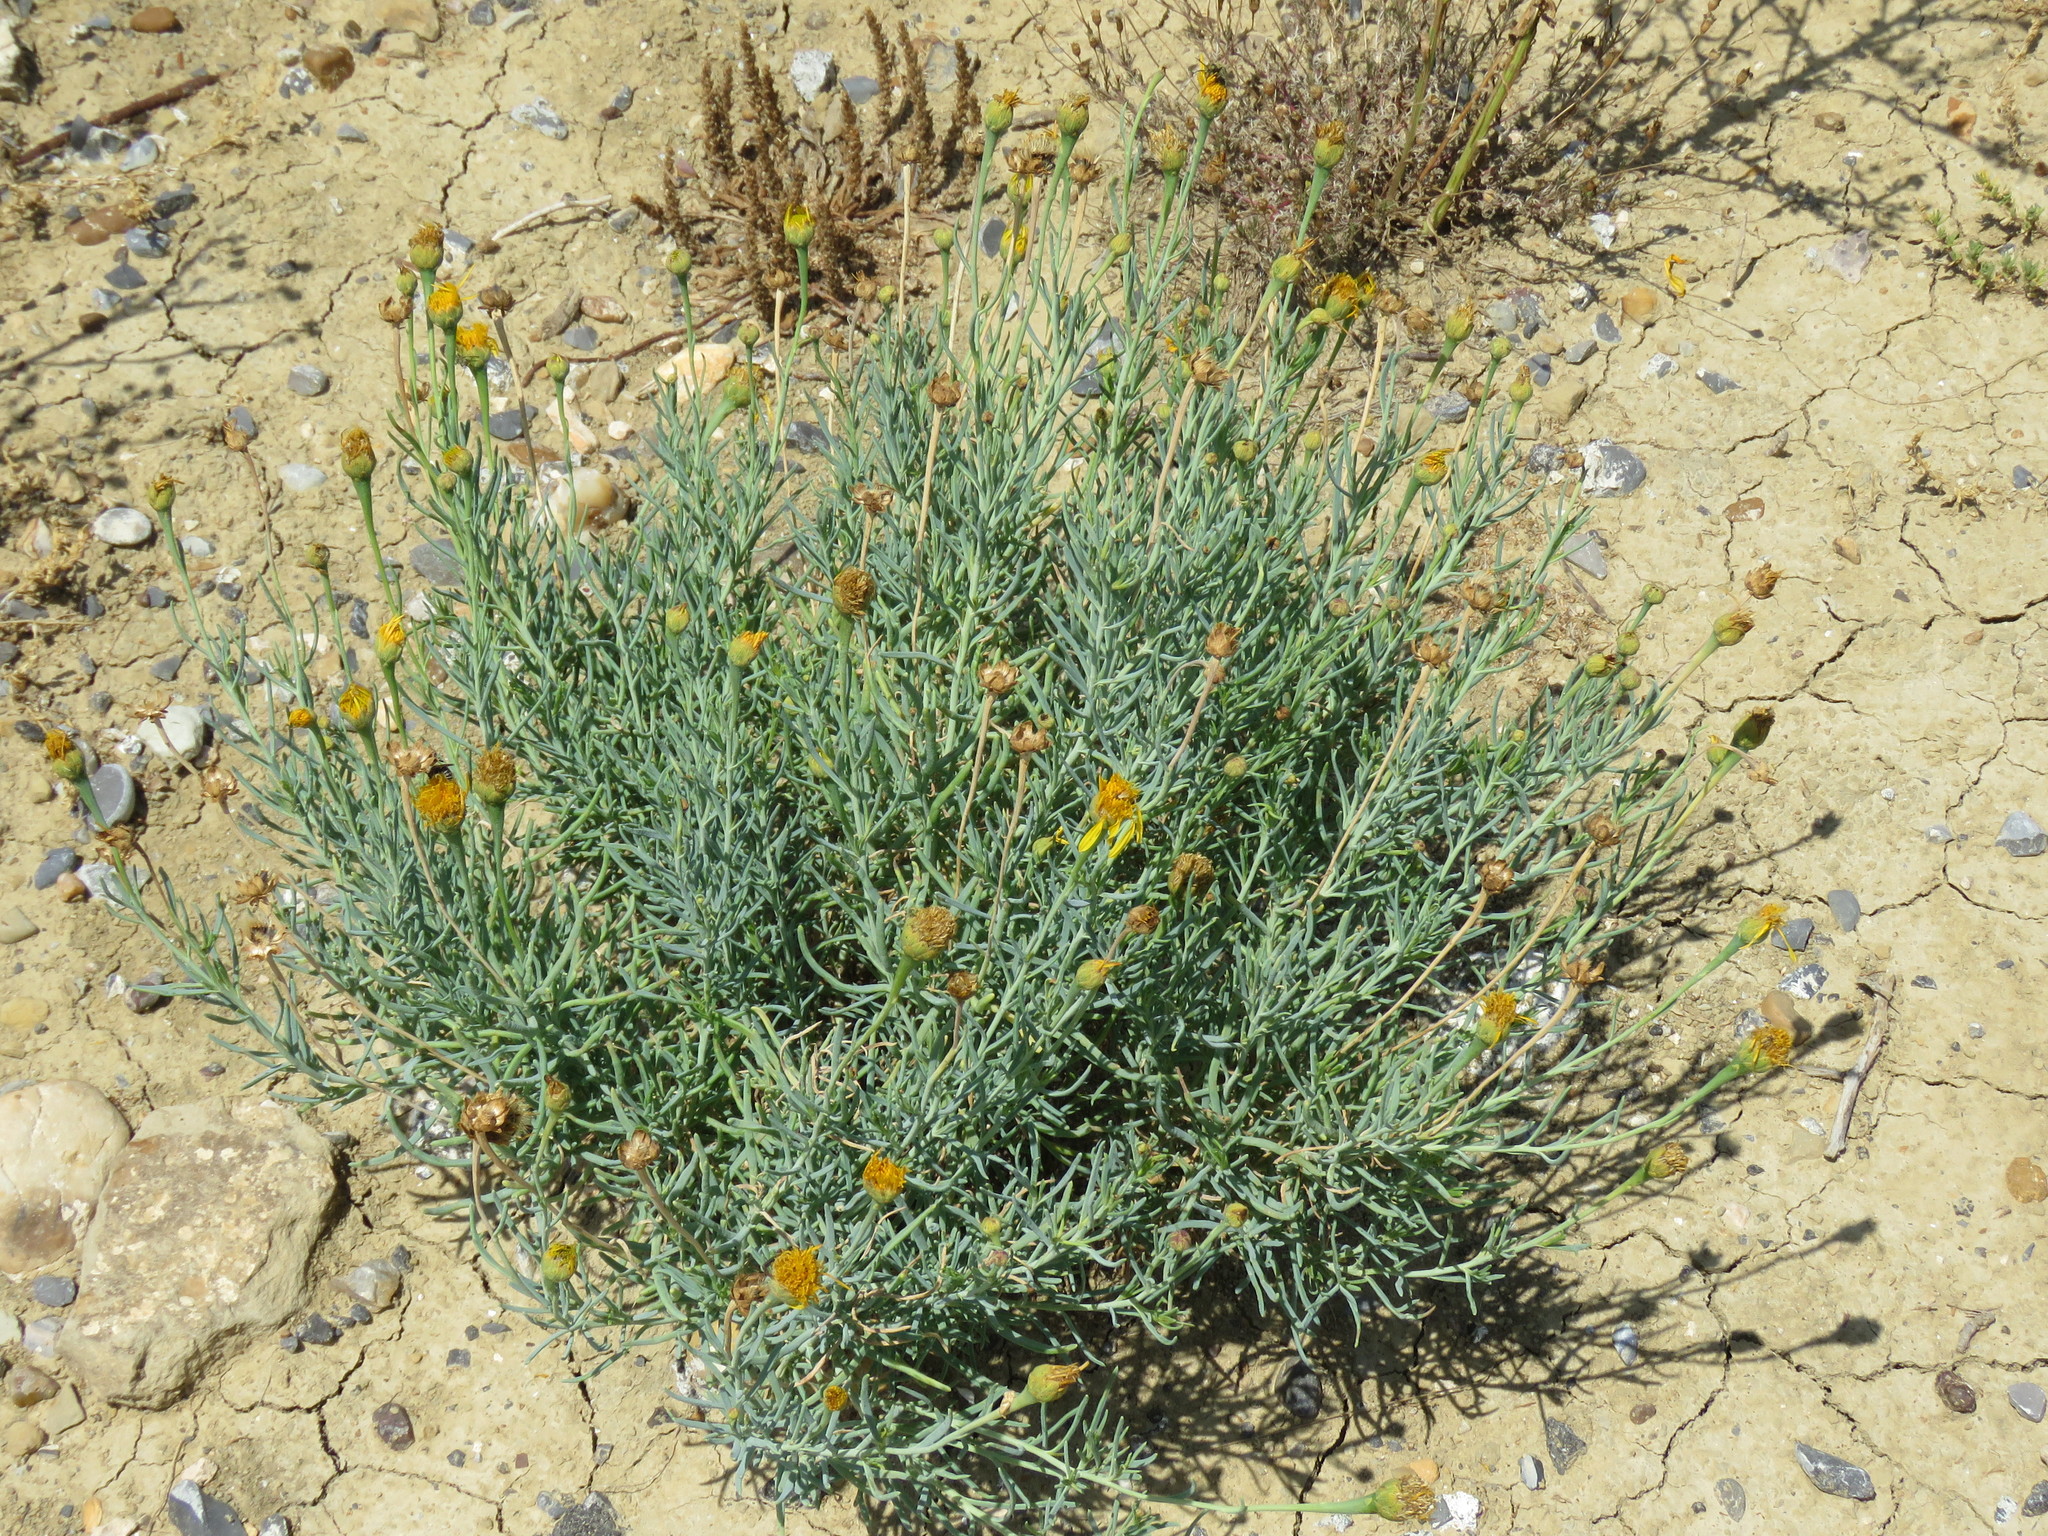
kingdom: Plantae
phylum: Tracheophyta
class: Magnoliopsida
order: Asterales
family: Asteraceae
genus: Clappia
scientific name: Clappia suaedifolia
